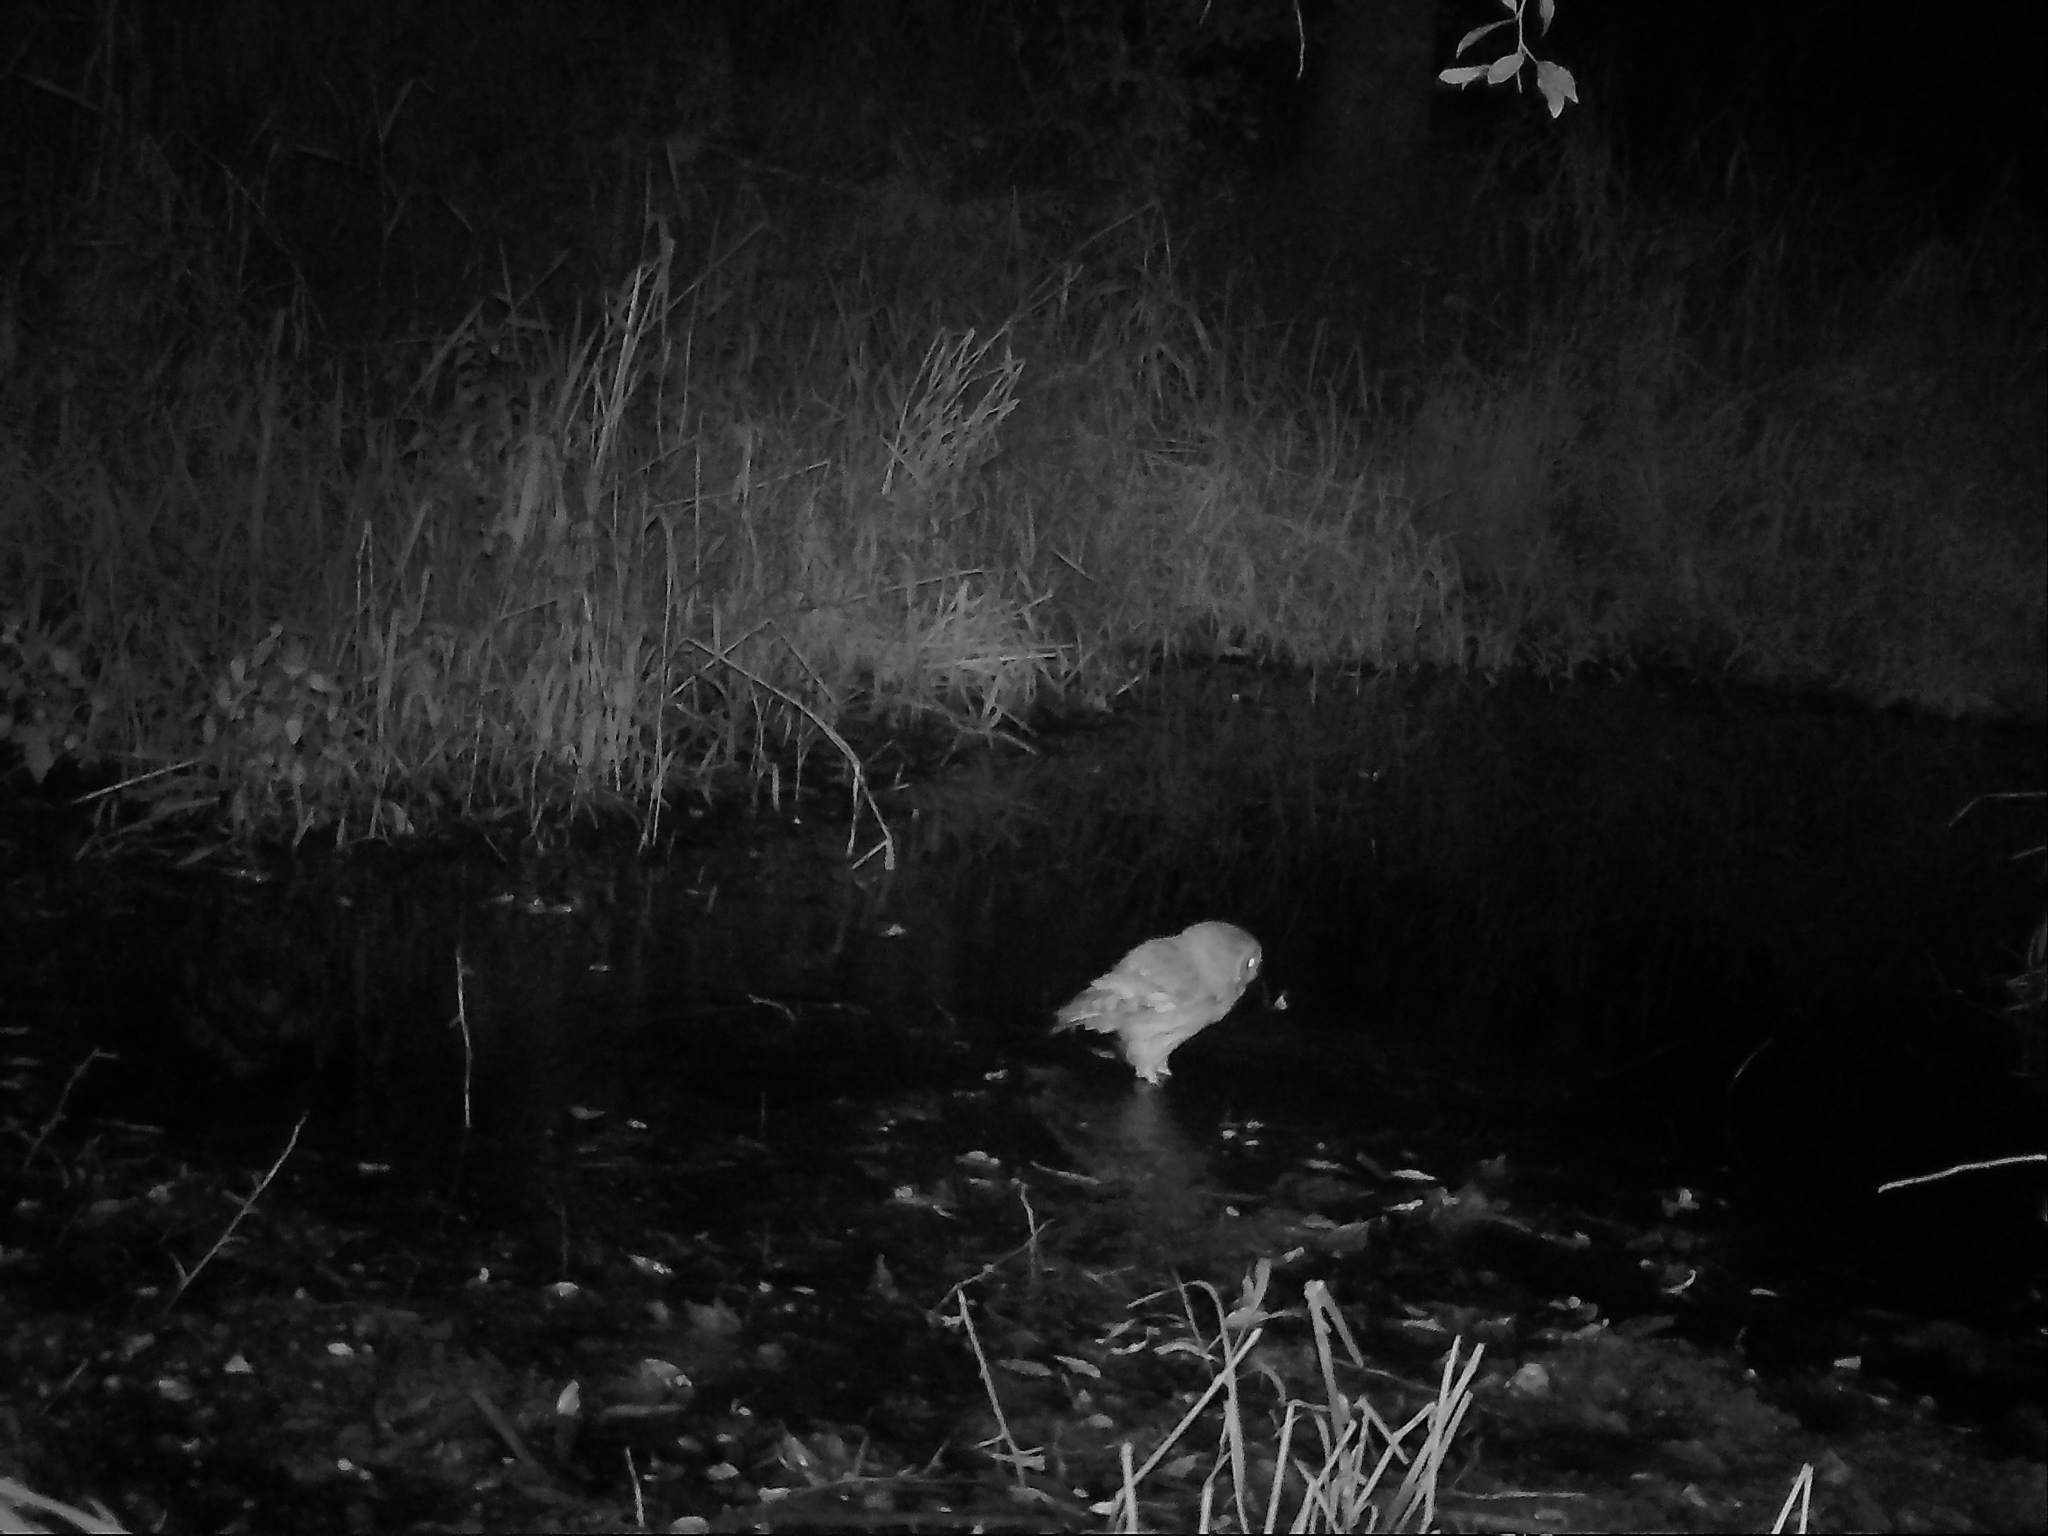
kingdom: Animalia
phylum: Chordata
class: Aves
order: Strigiformes
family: Strigidae
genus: Megascops
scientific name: Megascops asio
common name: Eastern screech-owl
